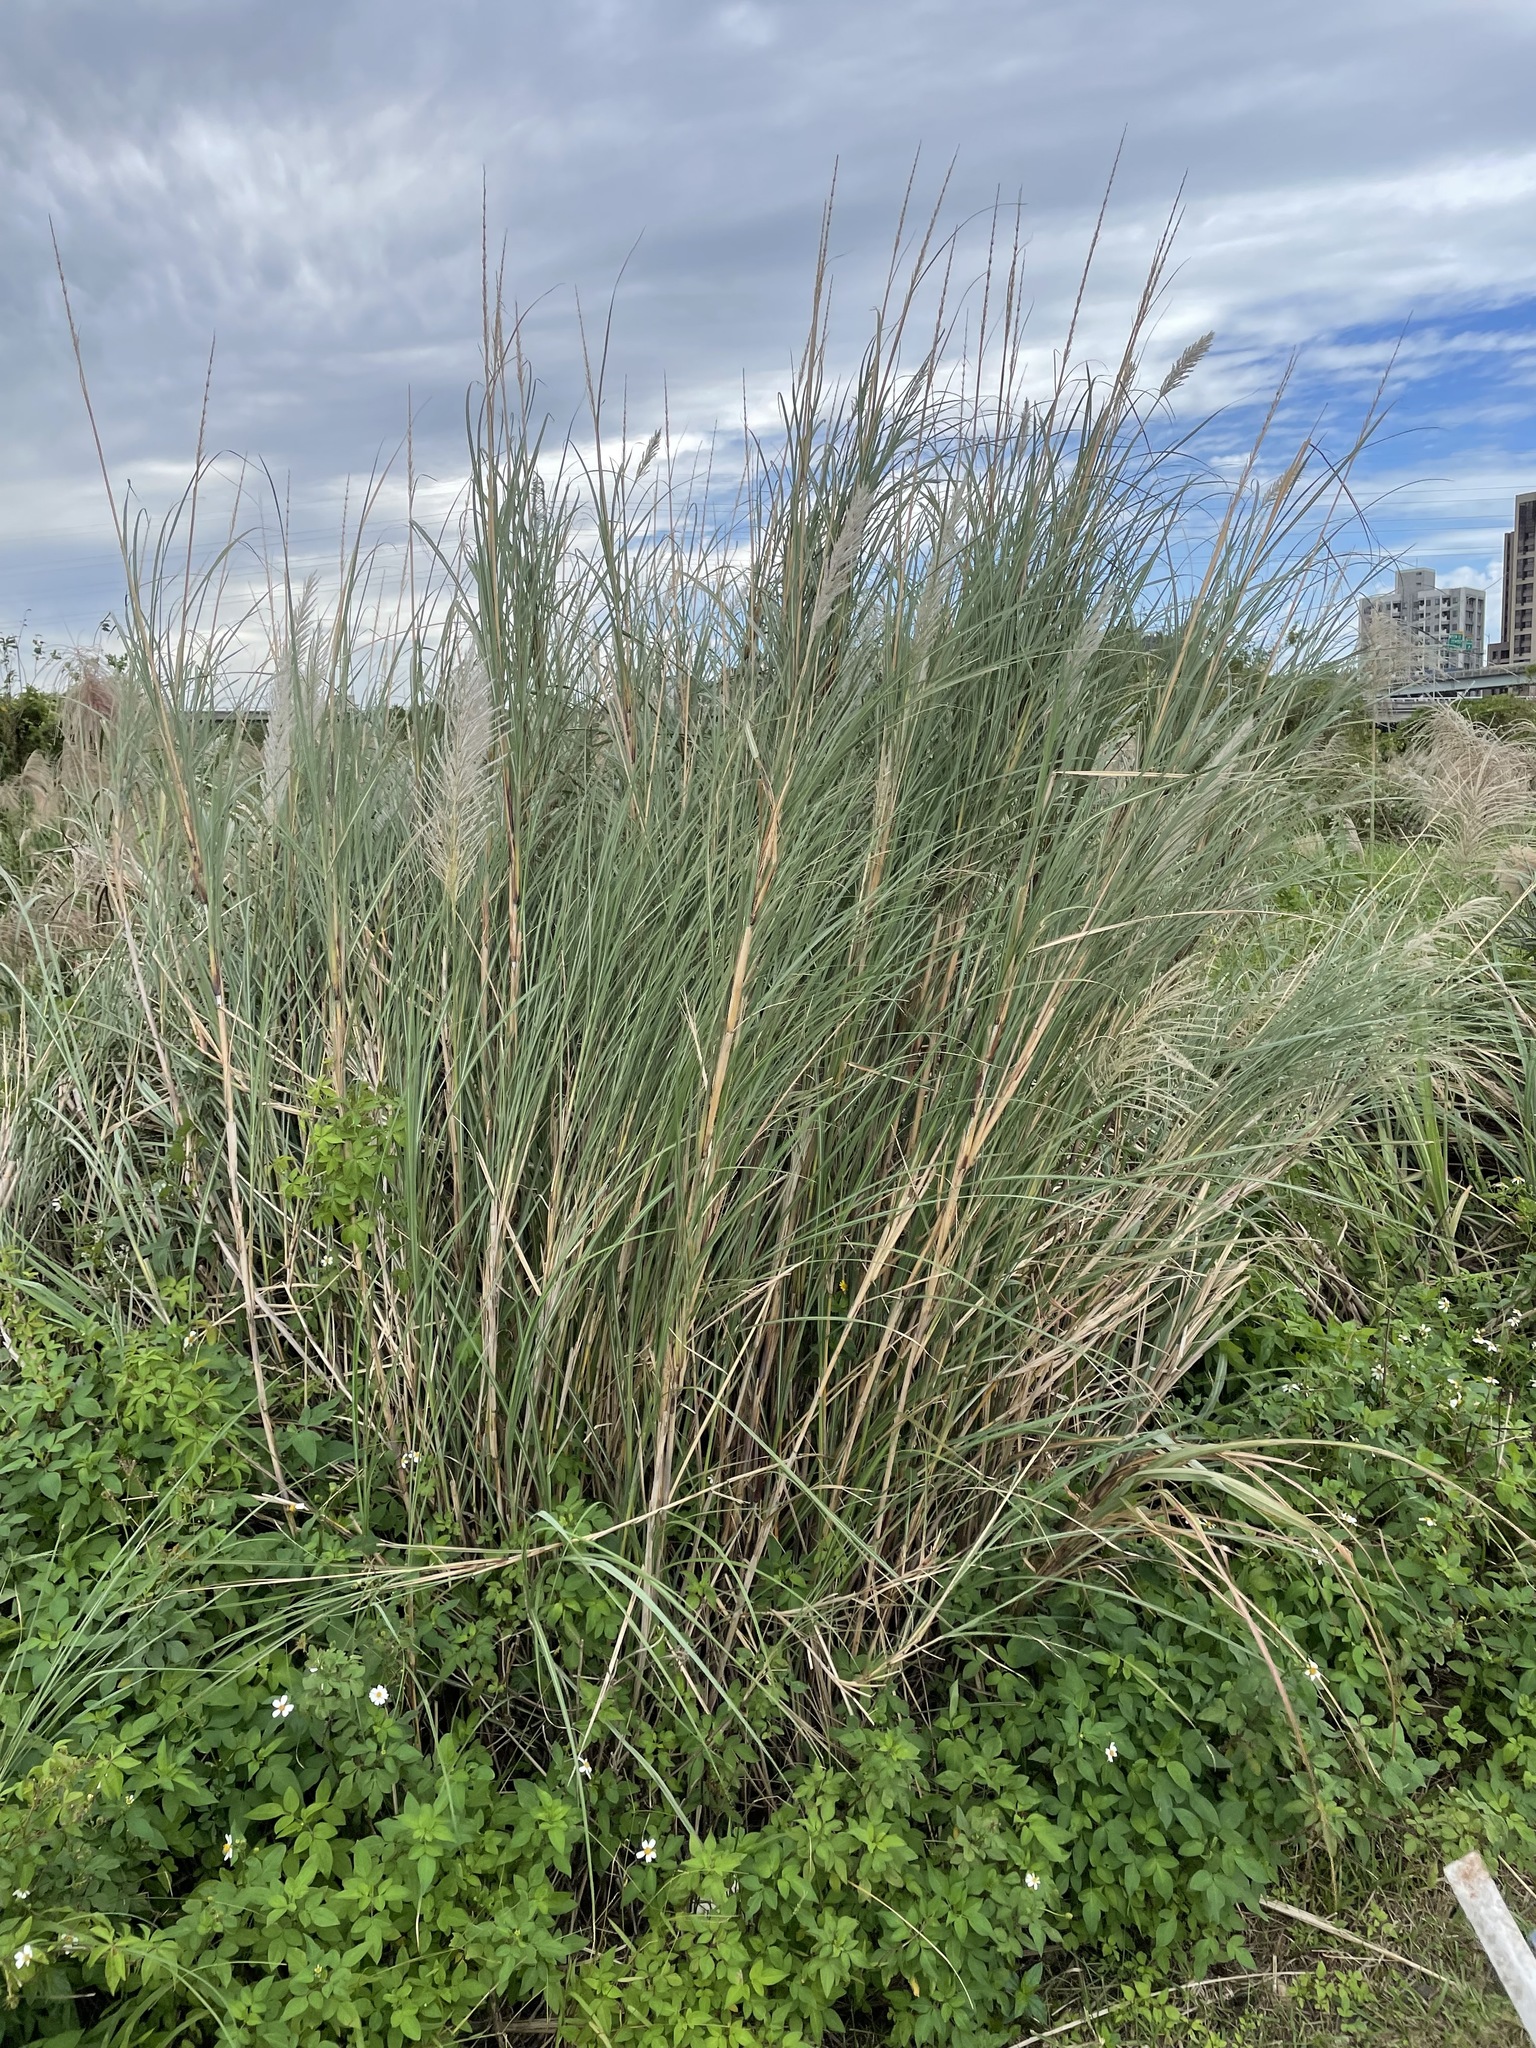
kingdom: Plantae
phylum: Tracheophyta
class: Liliopsida
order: Poales
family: Poaceae
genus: Saccharum
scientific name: Saccharum spontaneum
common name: Wild sugarcane
